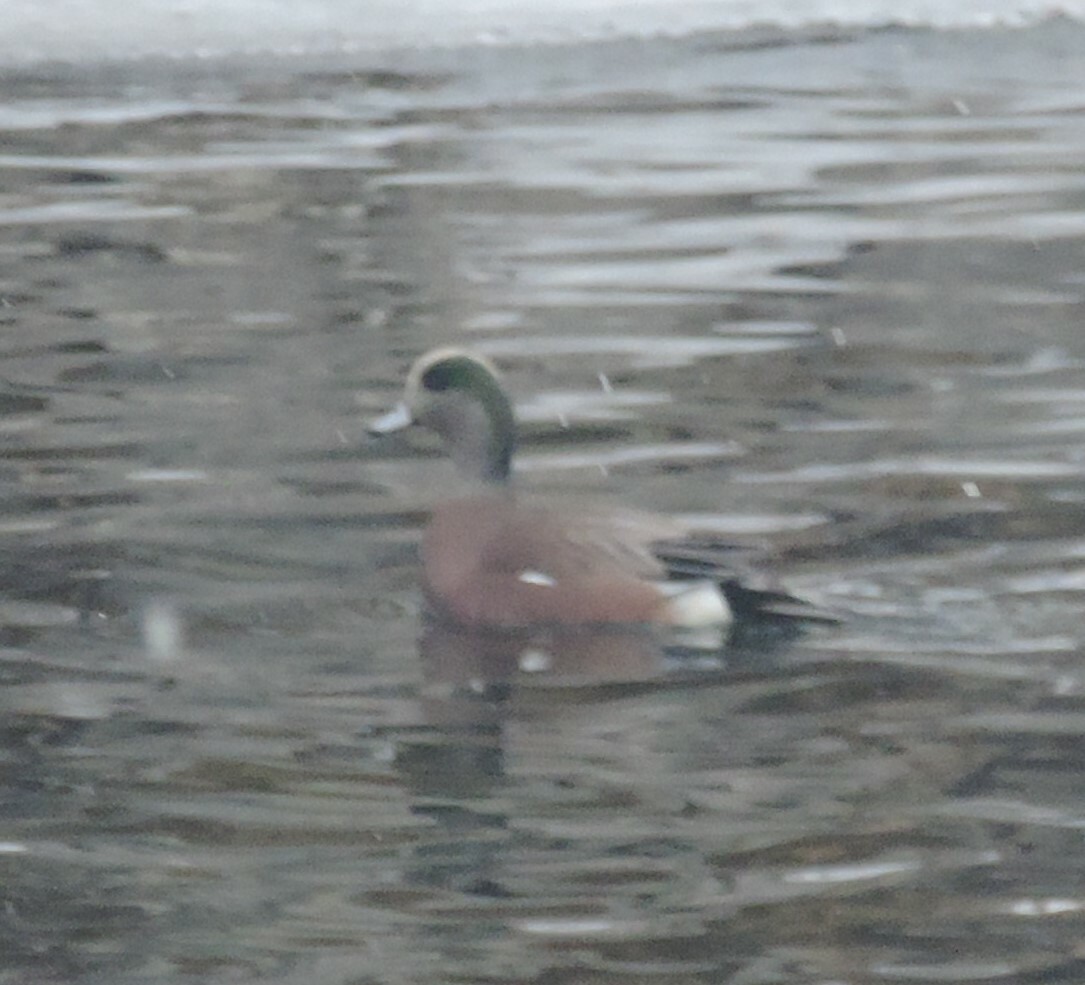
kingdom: Animalia
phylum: Chordata
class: Aves
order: Anseriformes
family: Anatidae
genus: Mareca
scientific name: Mareca americana
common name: American wigeon
